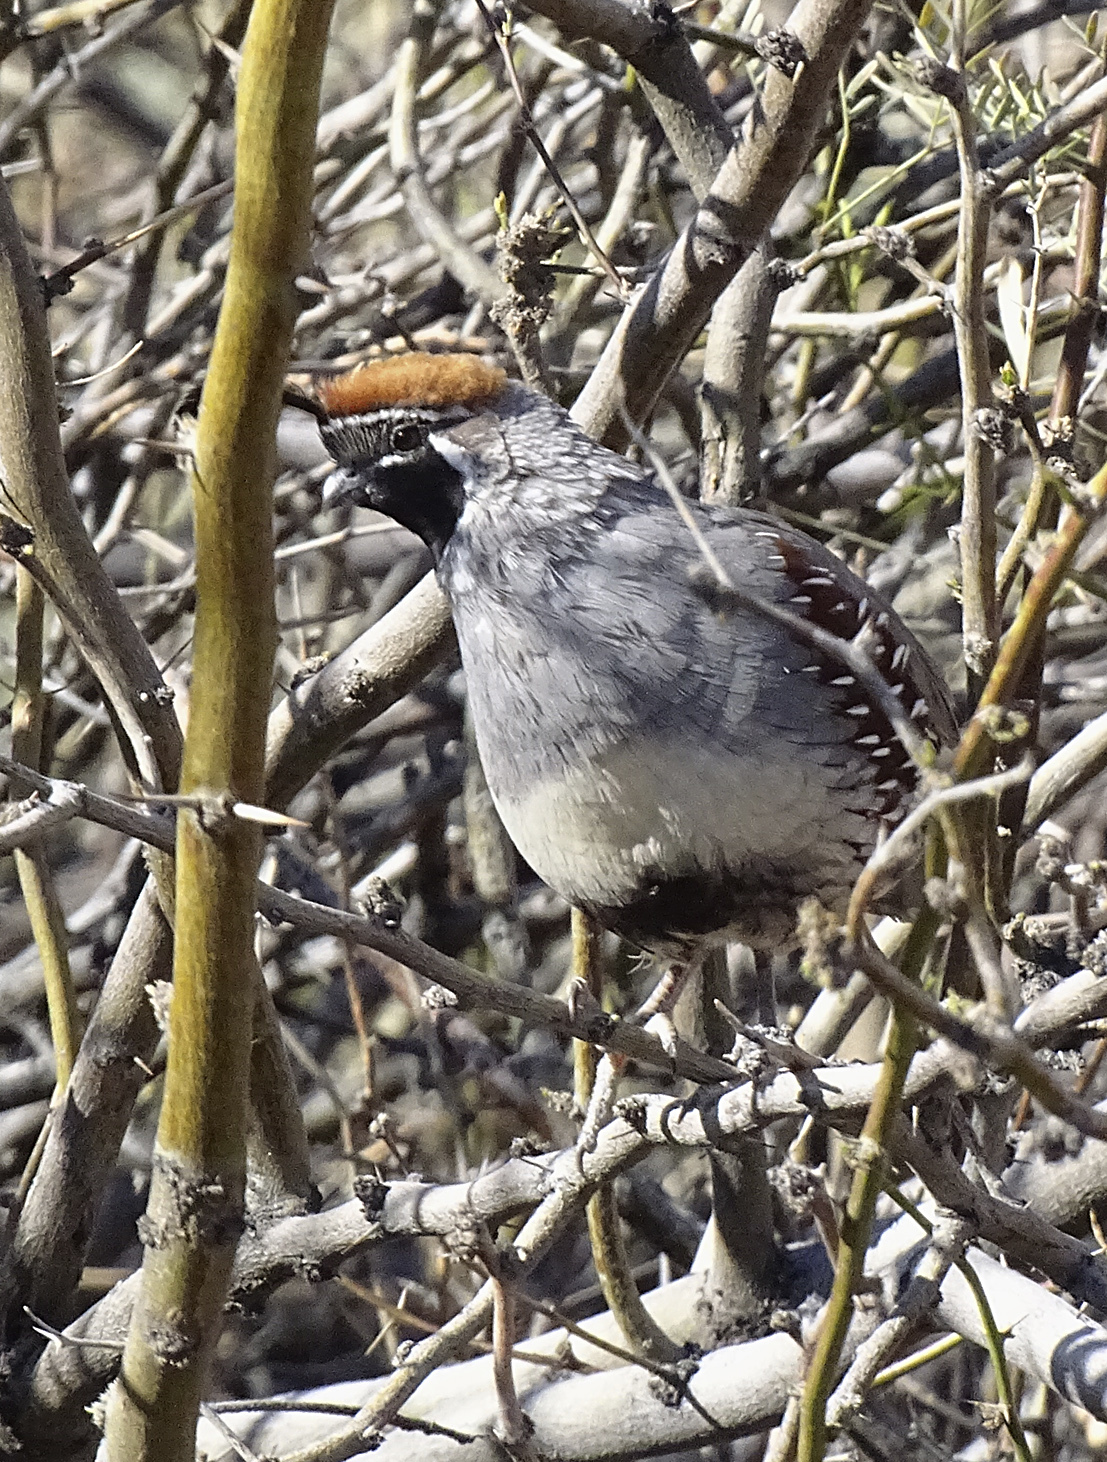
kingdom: Animalia
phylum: Chordata
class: Aves
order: Galliformes
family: Odontophoridae
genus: Callipepla
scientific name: Callipepla gambelii
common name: Gambel's quail
